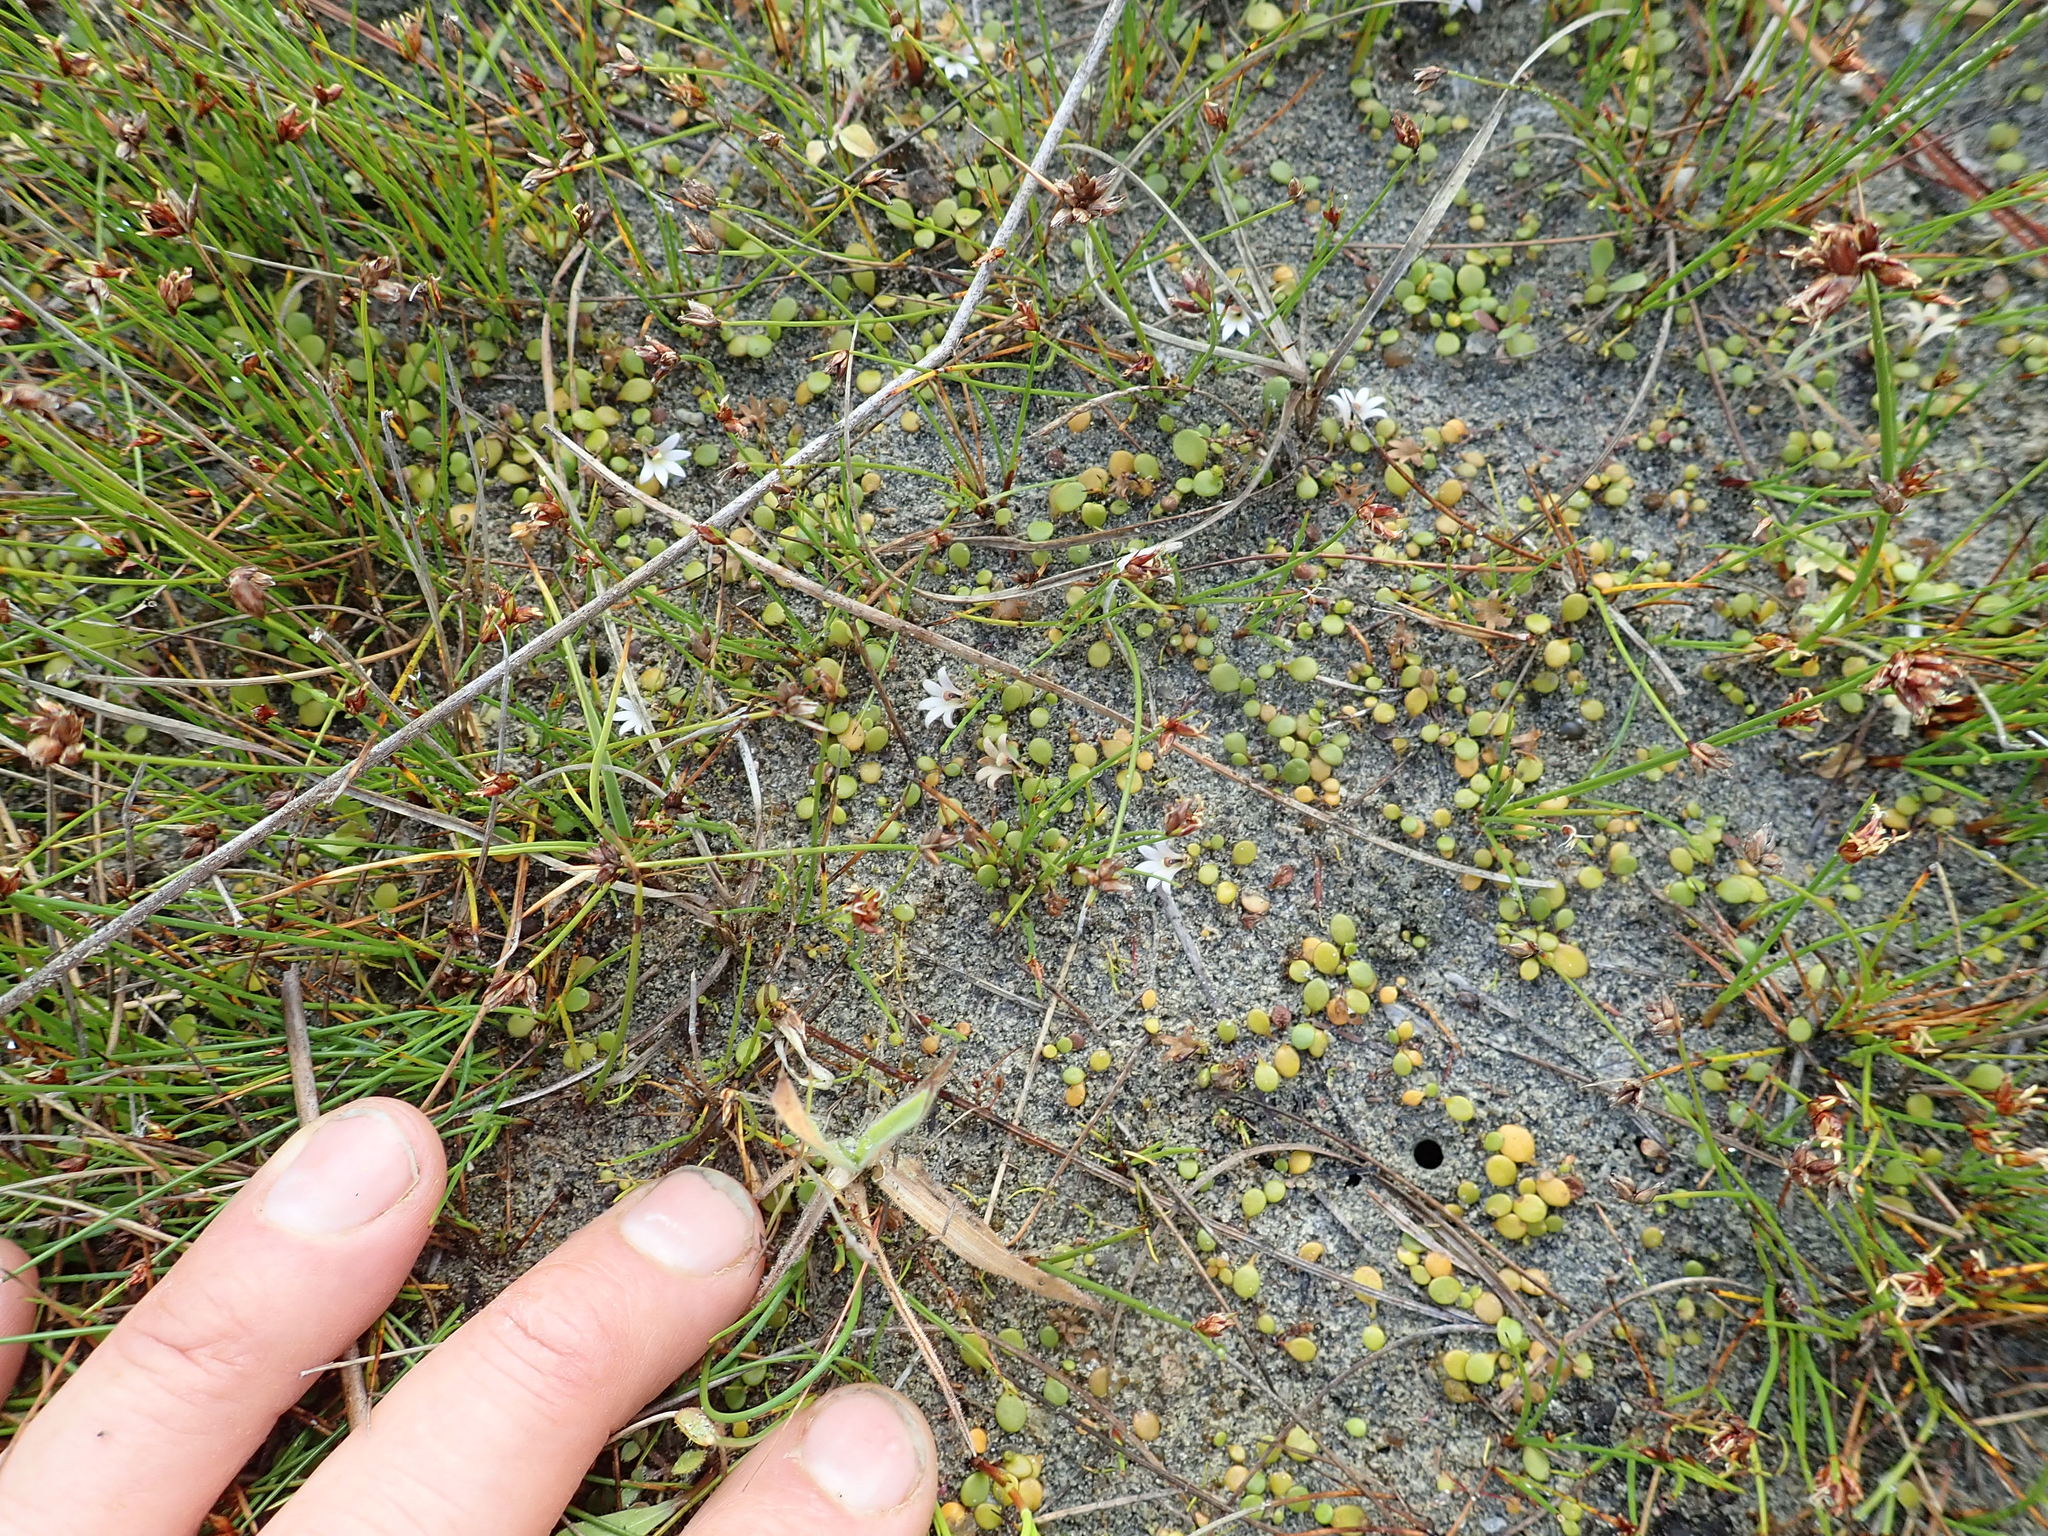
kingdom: Plantae
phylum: Tracheophyta
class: Magnoliopsida
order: Asterales
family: Goodeniaceae
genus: Goodenia
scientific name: Goodenia heenanii
